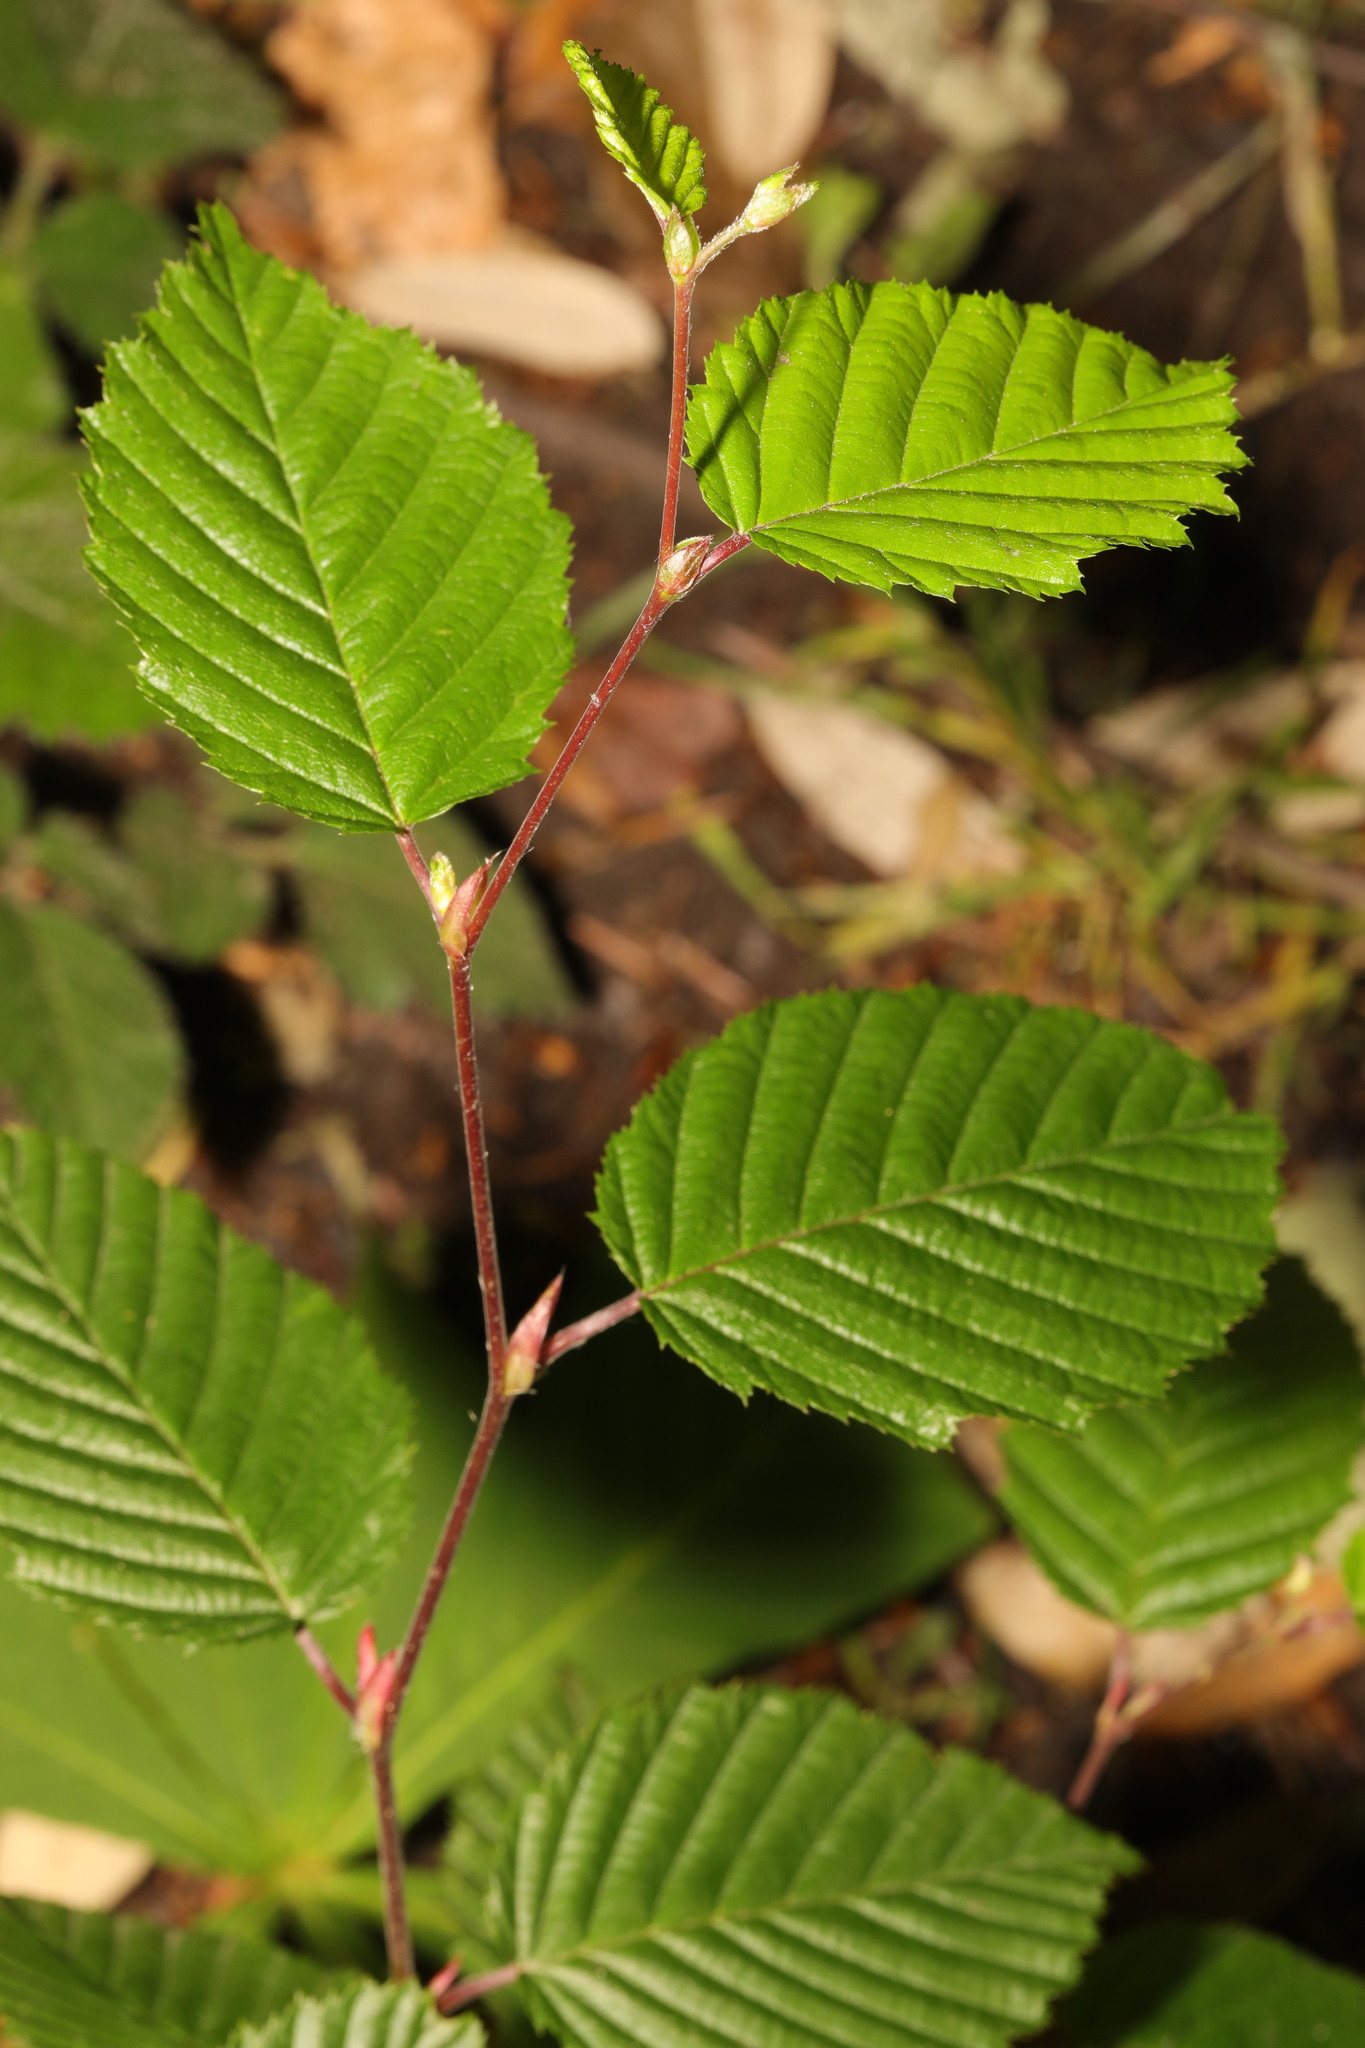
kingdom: Plantae
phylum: Tracheophyta
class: Magnoliopsida
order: Fagales
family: Betulaceae
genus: Carpinus
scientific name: Carpinus betulus
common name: Hornbeam
